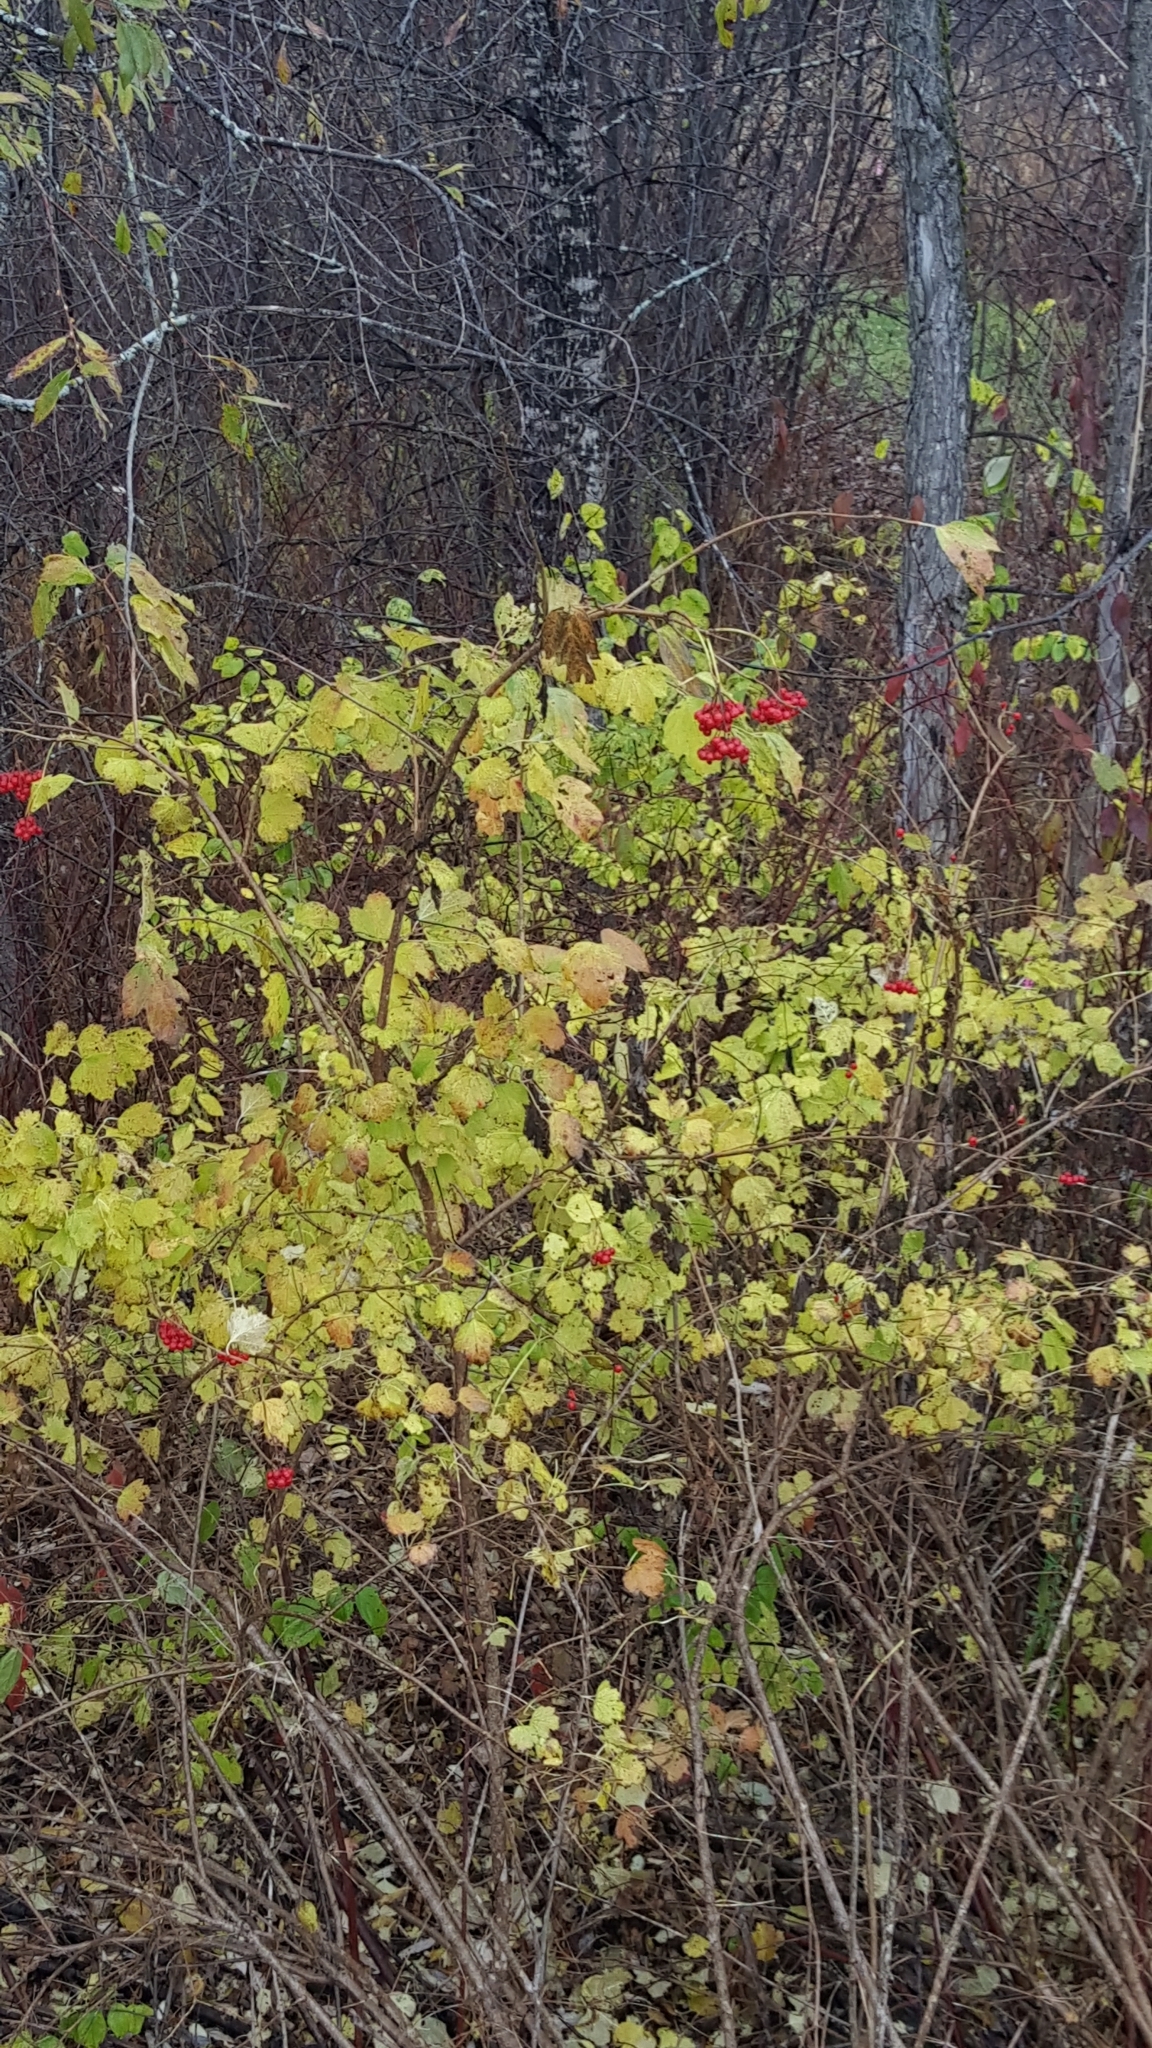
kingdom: Plantae
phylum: Tracheophyta
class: Magnoliopsida
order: Dipsacales
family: Viburnaceae
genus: Viburnum
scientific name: Viburnum opulus
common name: Guelder-rose
